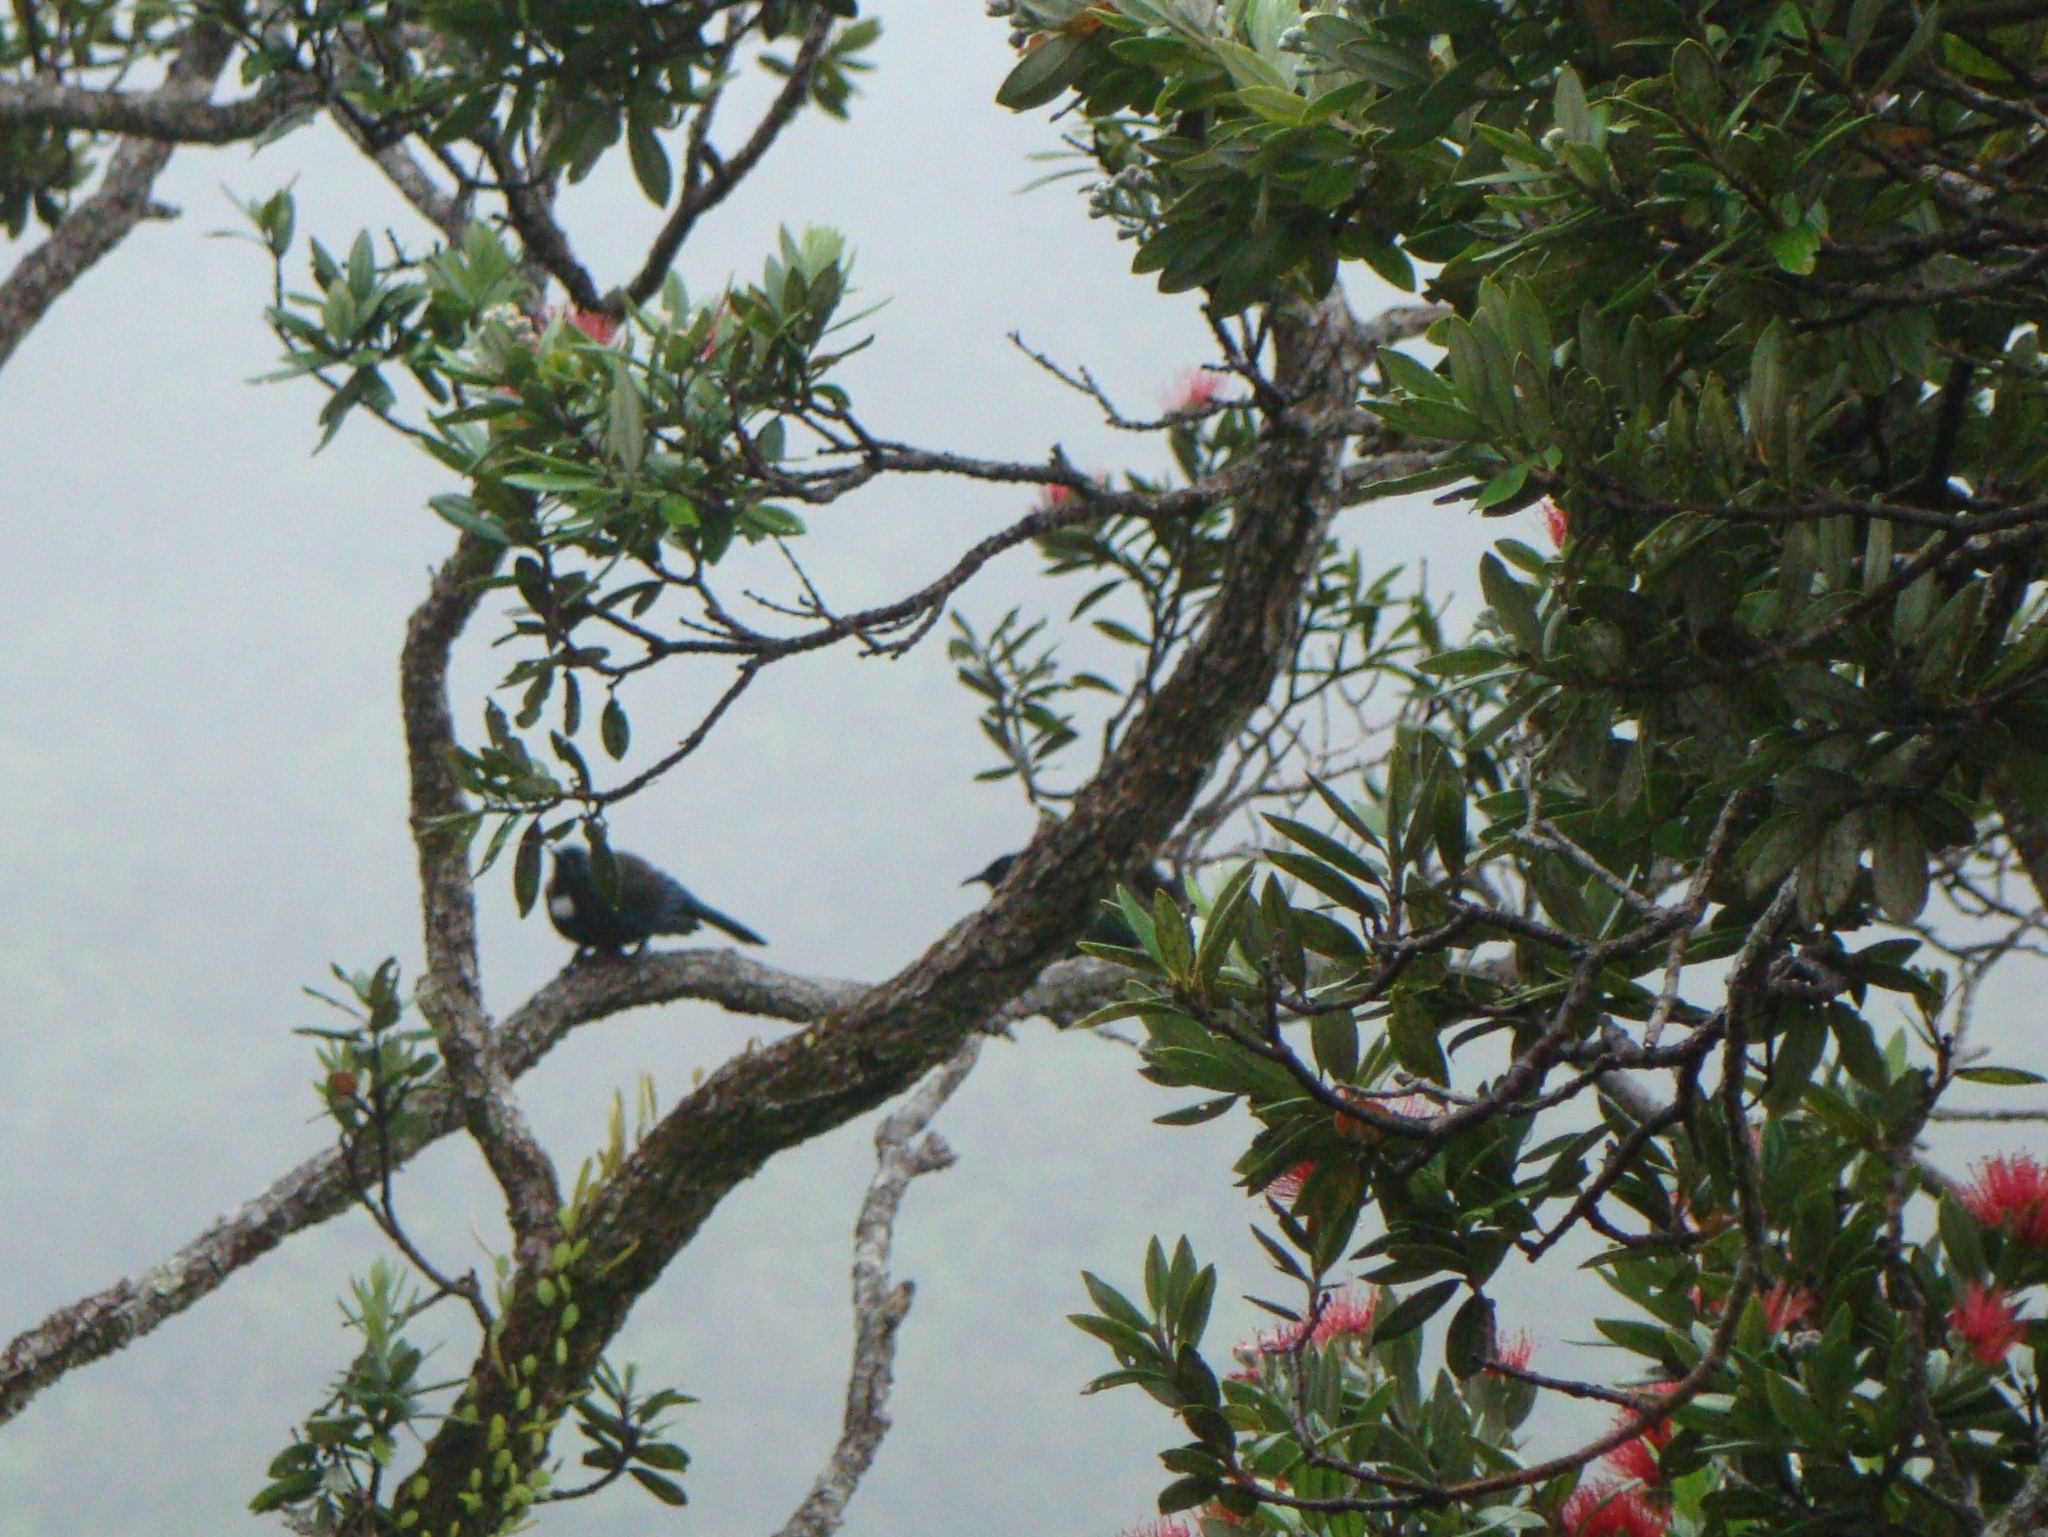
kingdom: Animalia
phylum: Chordata
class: Aves
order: Passeriformes
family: Meliphagidae
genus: Prosthemadera
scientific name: Prosthemadera novaeseelandiae
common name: Tui
